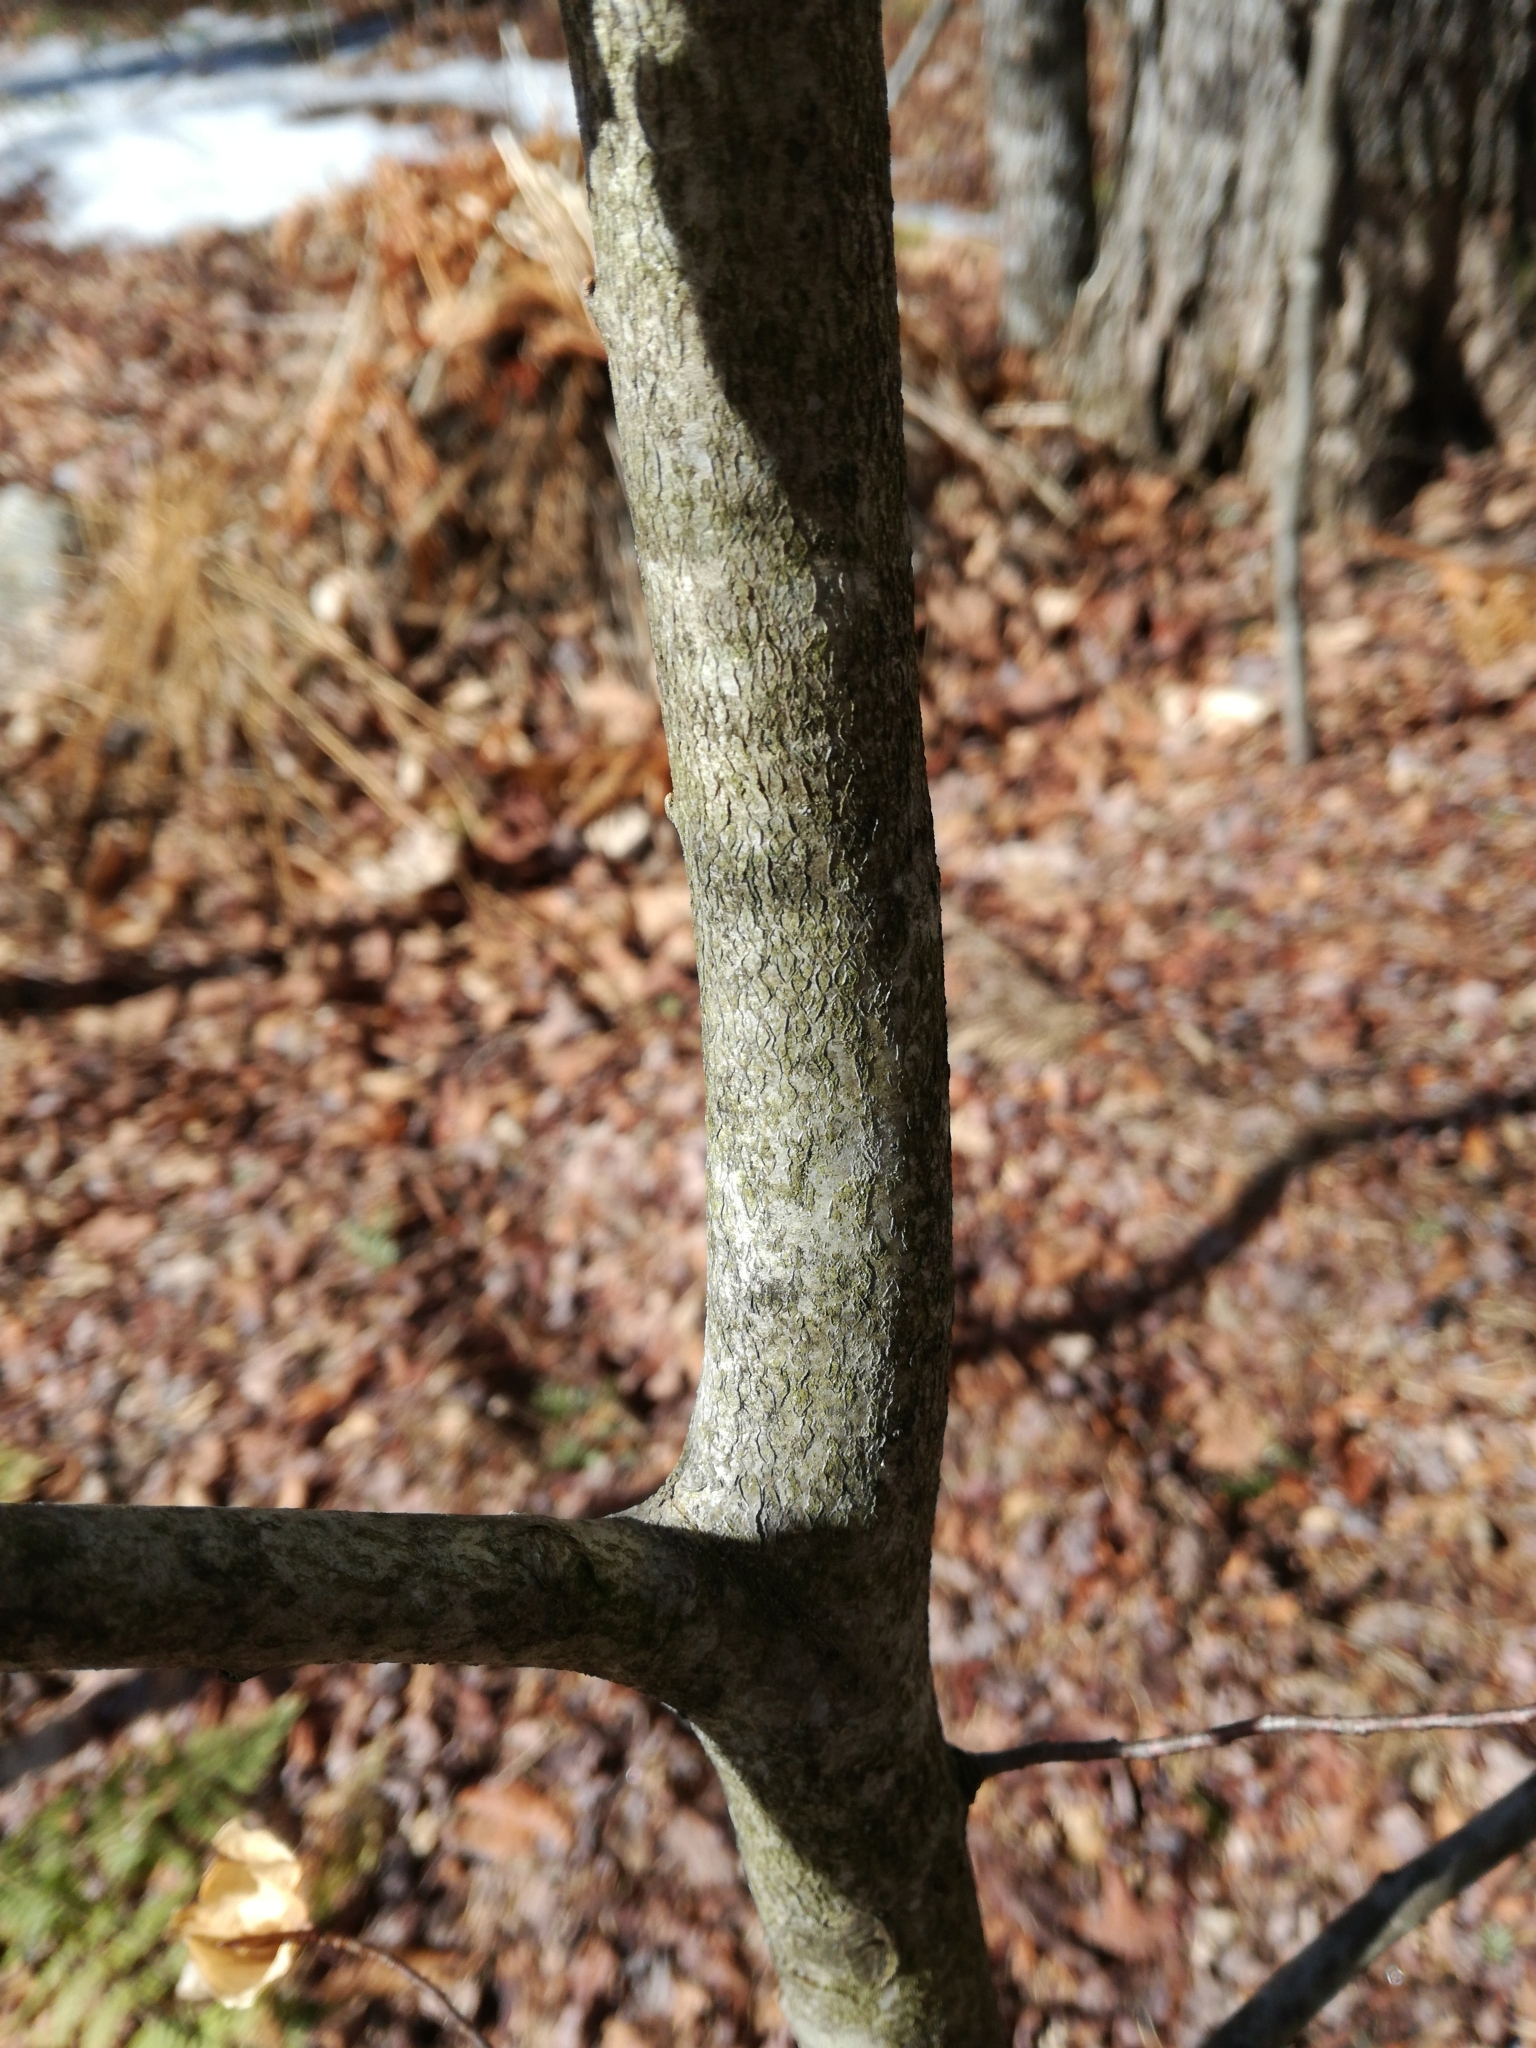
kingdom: Plantae
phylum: Tracheophyta
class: Magnoliopsida
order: Fagales
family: Fagaceae
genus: Fagus
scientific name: Fagus grandifolia
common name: American beech
